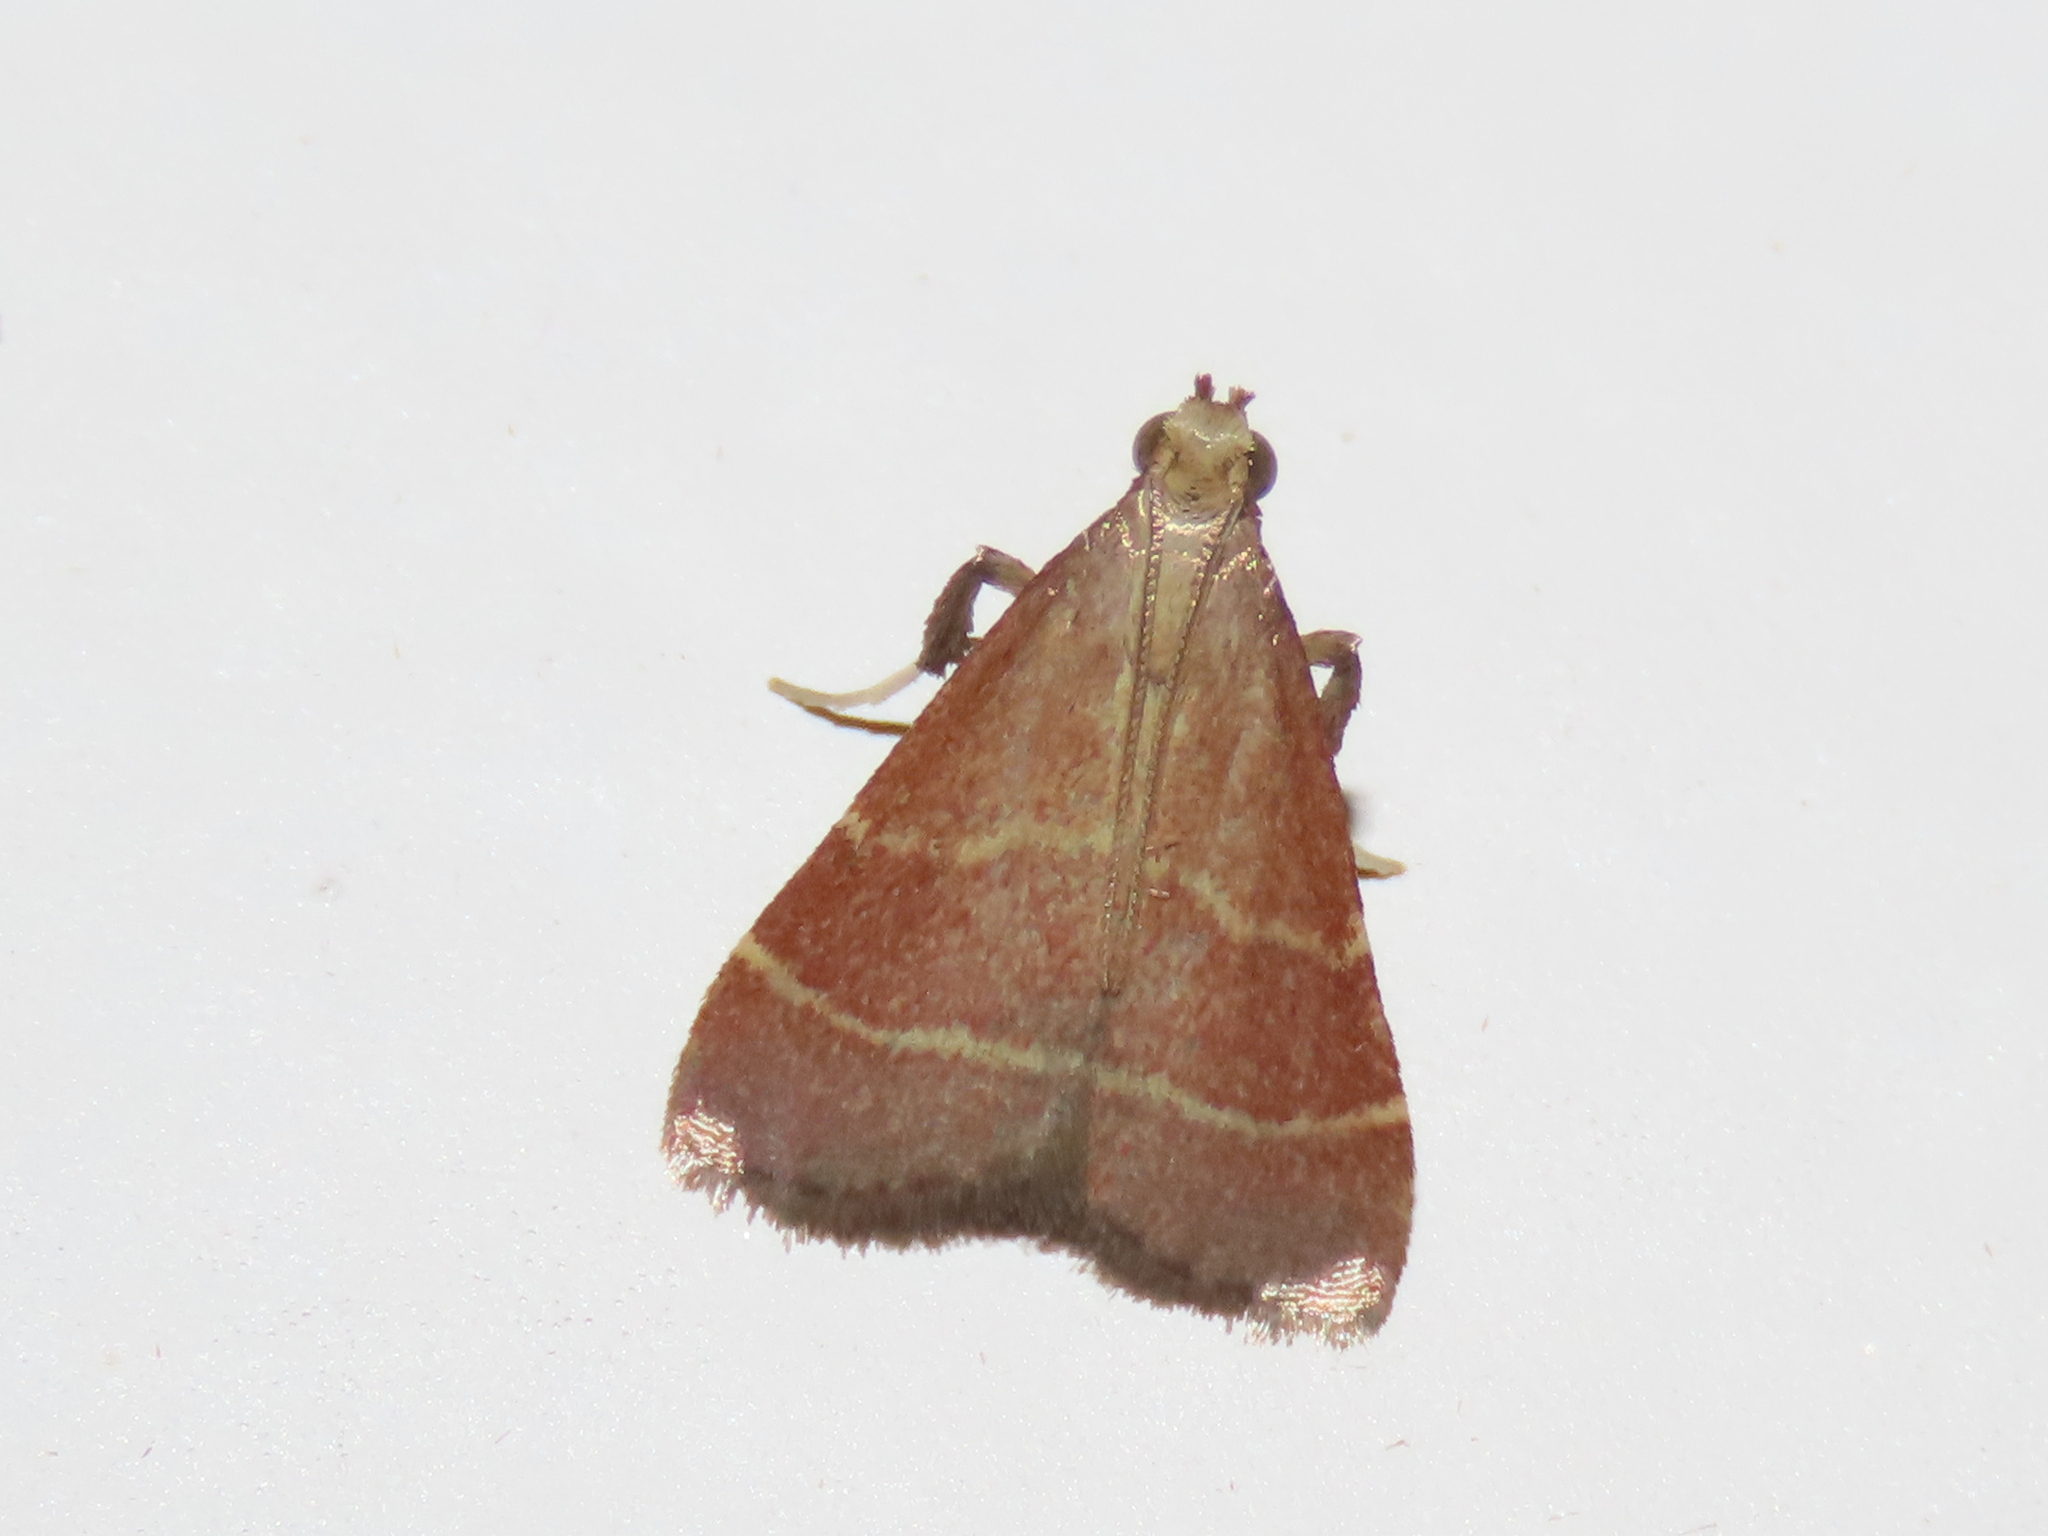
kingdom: Animalia
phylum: Arthropoda
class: Insecta
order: Lepidoptera
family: Pyralidae
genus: Arta
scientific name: Arta statalis
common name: Posturing arta moth
